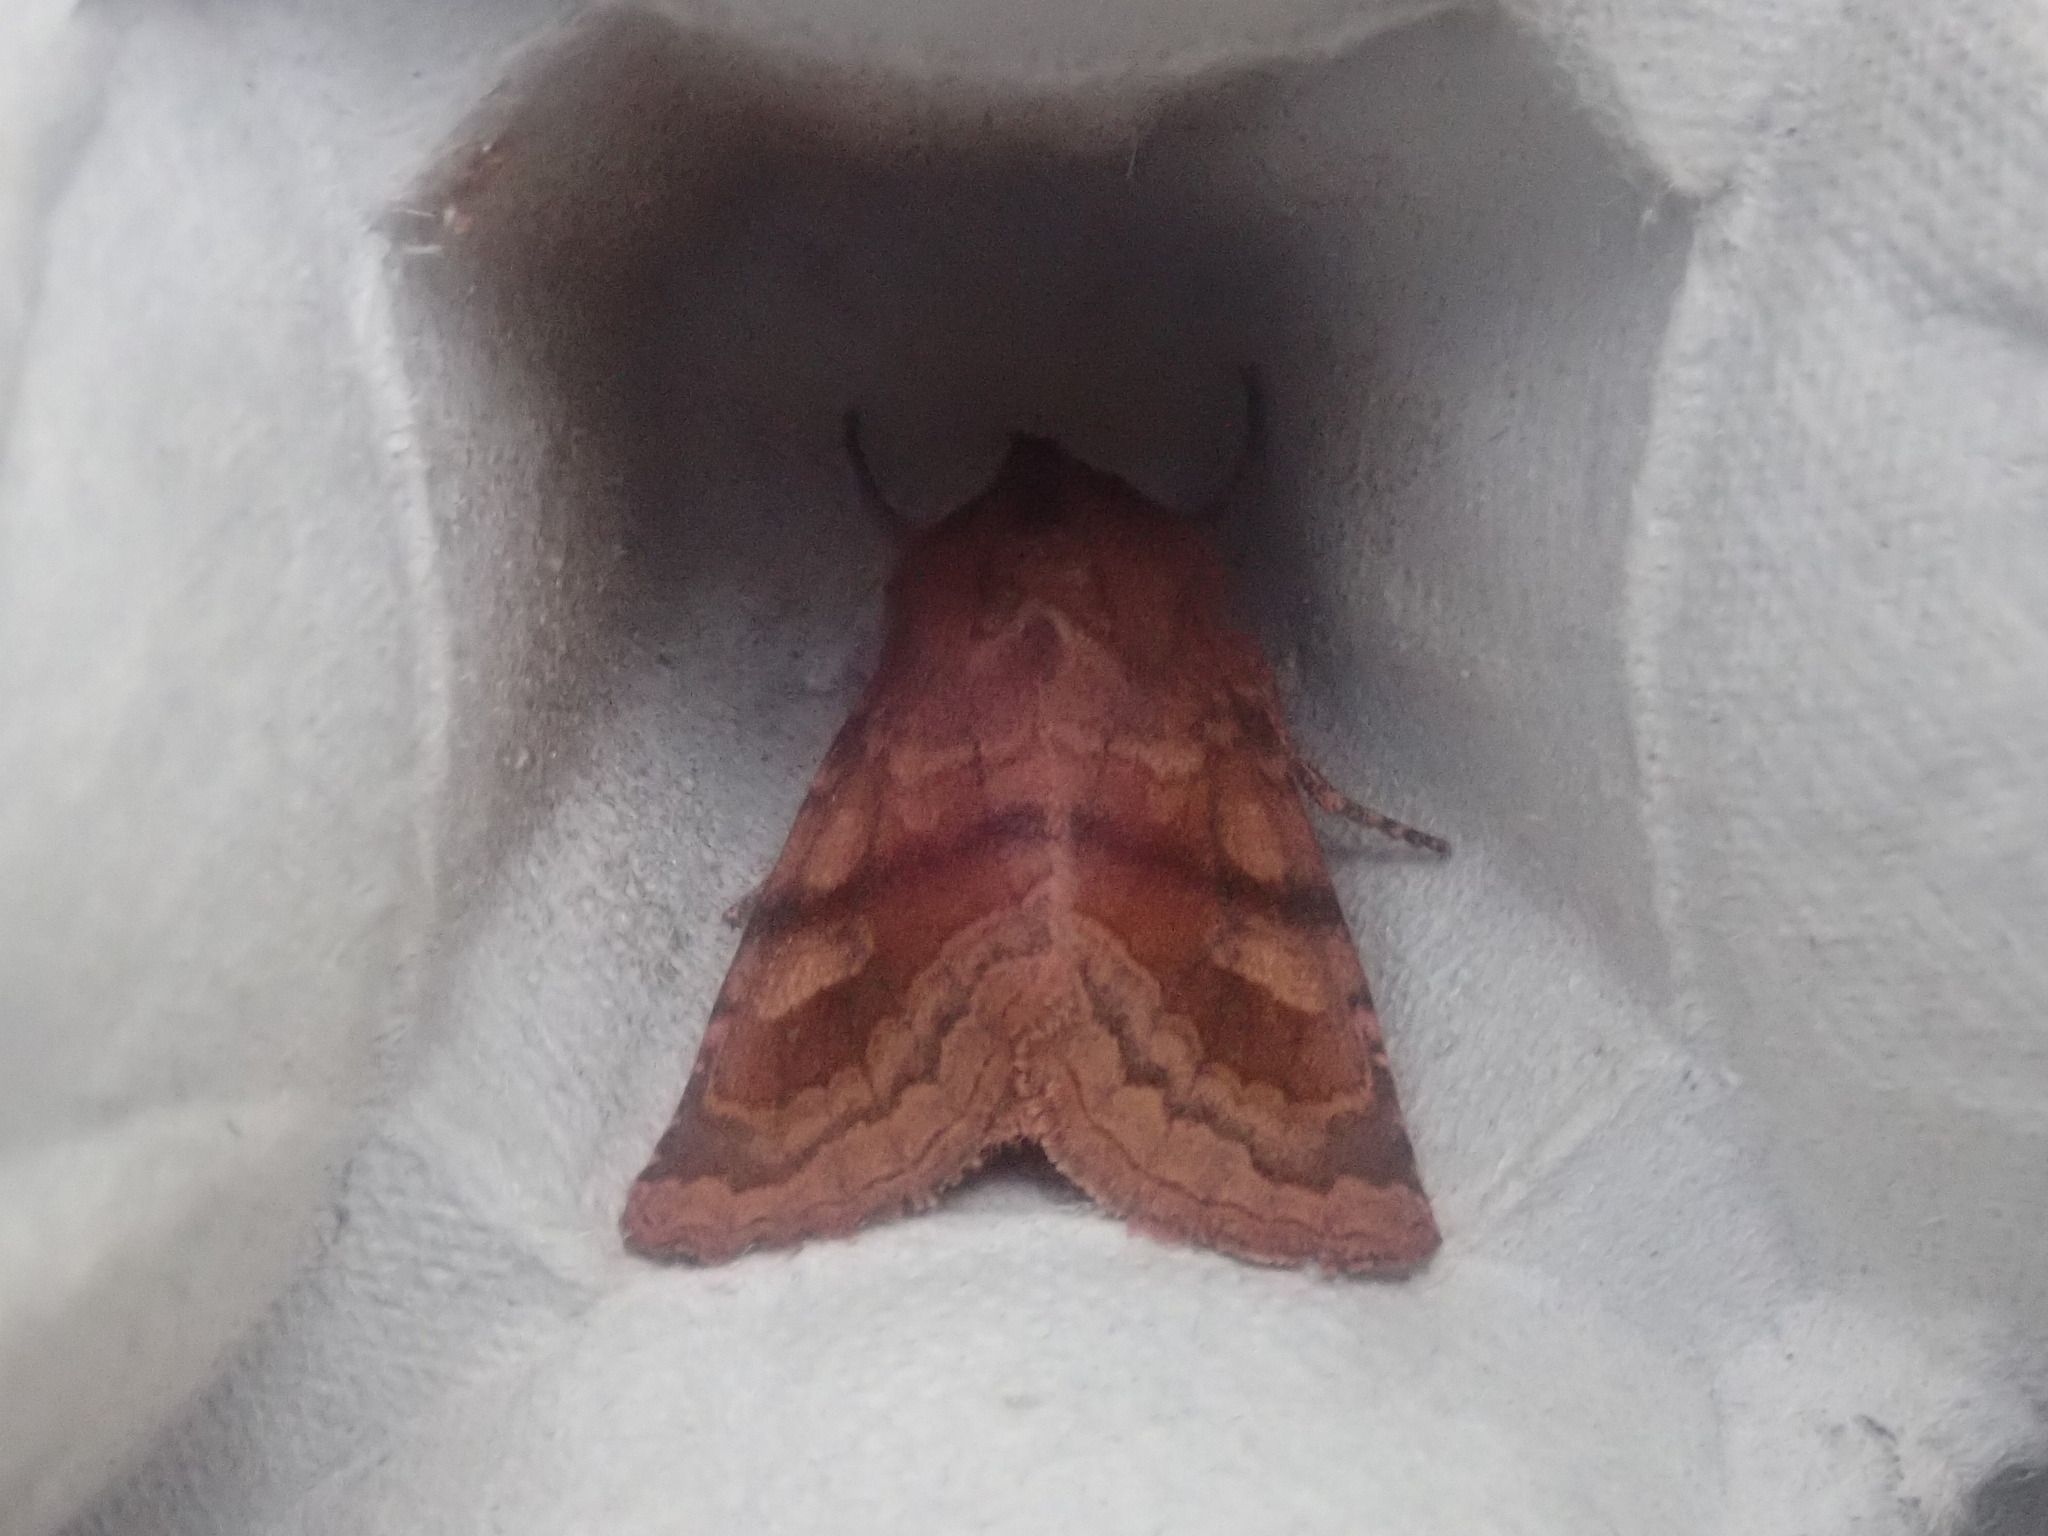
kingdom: Animalia
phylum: Arthropoda
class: Insecta
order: Lepidoptera
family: Noctuidae
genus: Nephelodes
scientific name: Nephelodes minians
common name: Bronzed cutworm
